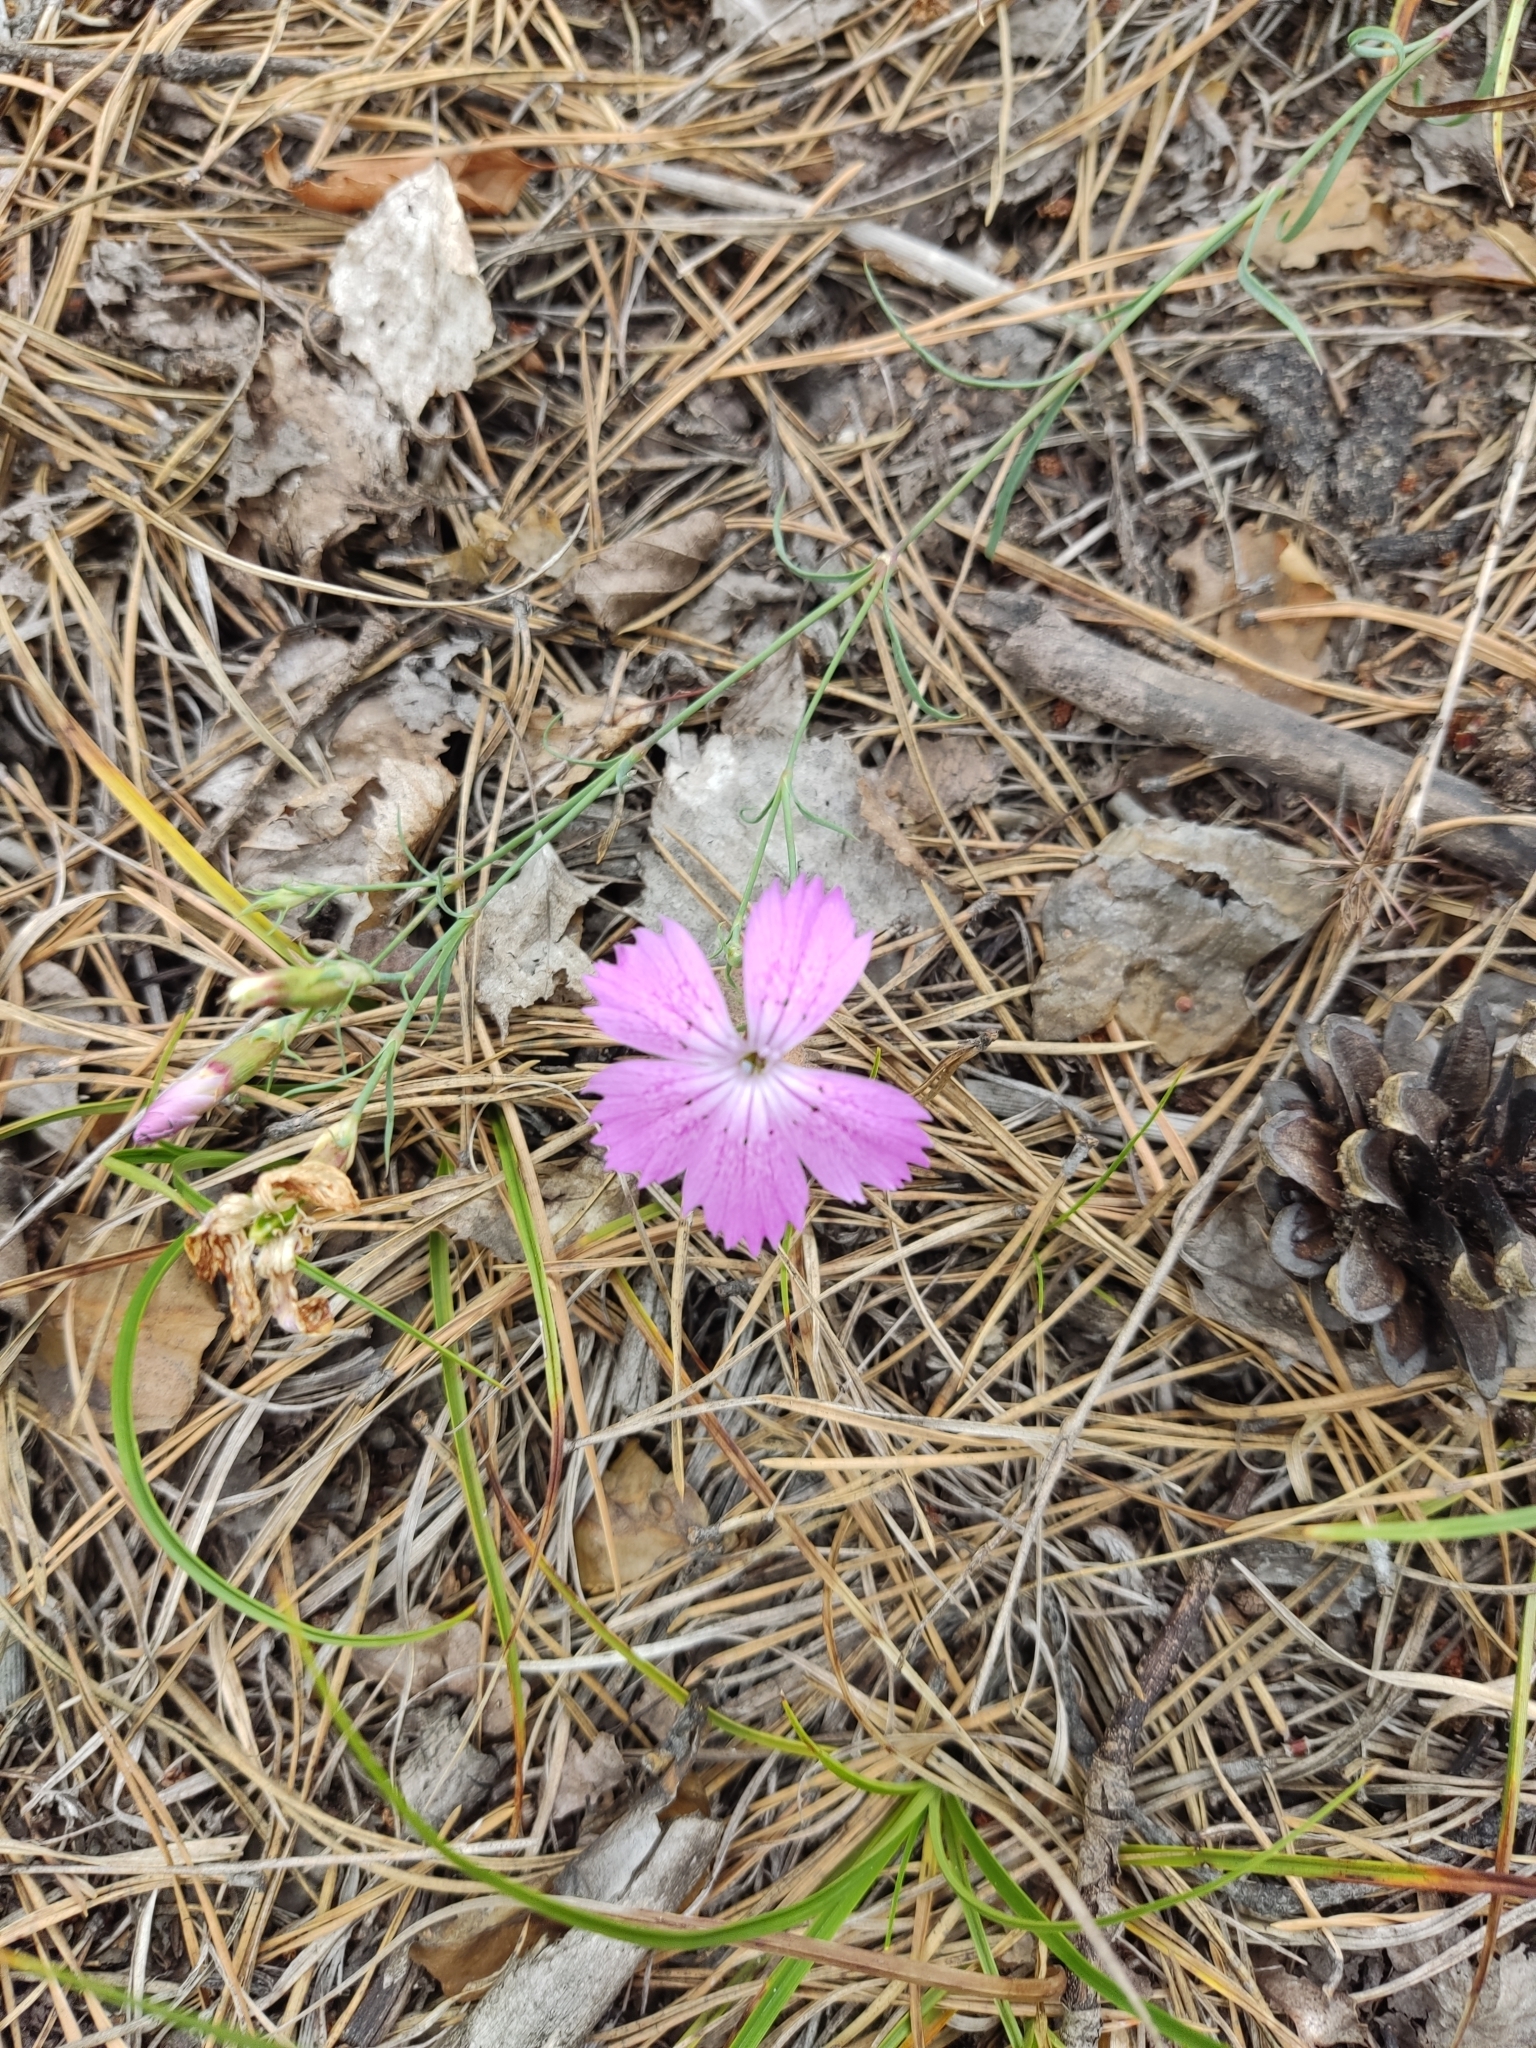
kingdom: Plantae
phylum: Tracheophyta
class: Magnoliopsida
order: Caryophyllales
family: Caryophyllaceae
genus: Dianthus
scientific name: Dianthus chinensis
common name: Rainbow pink
